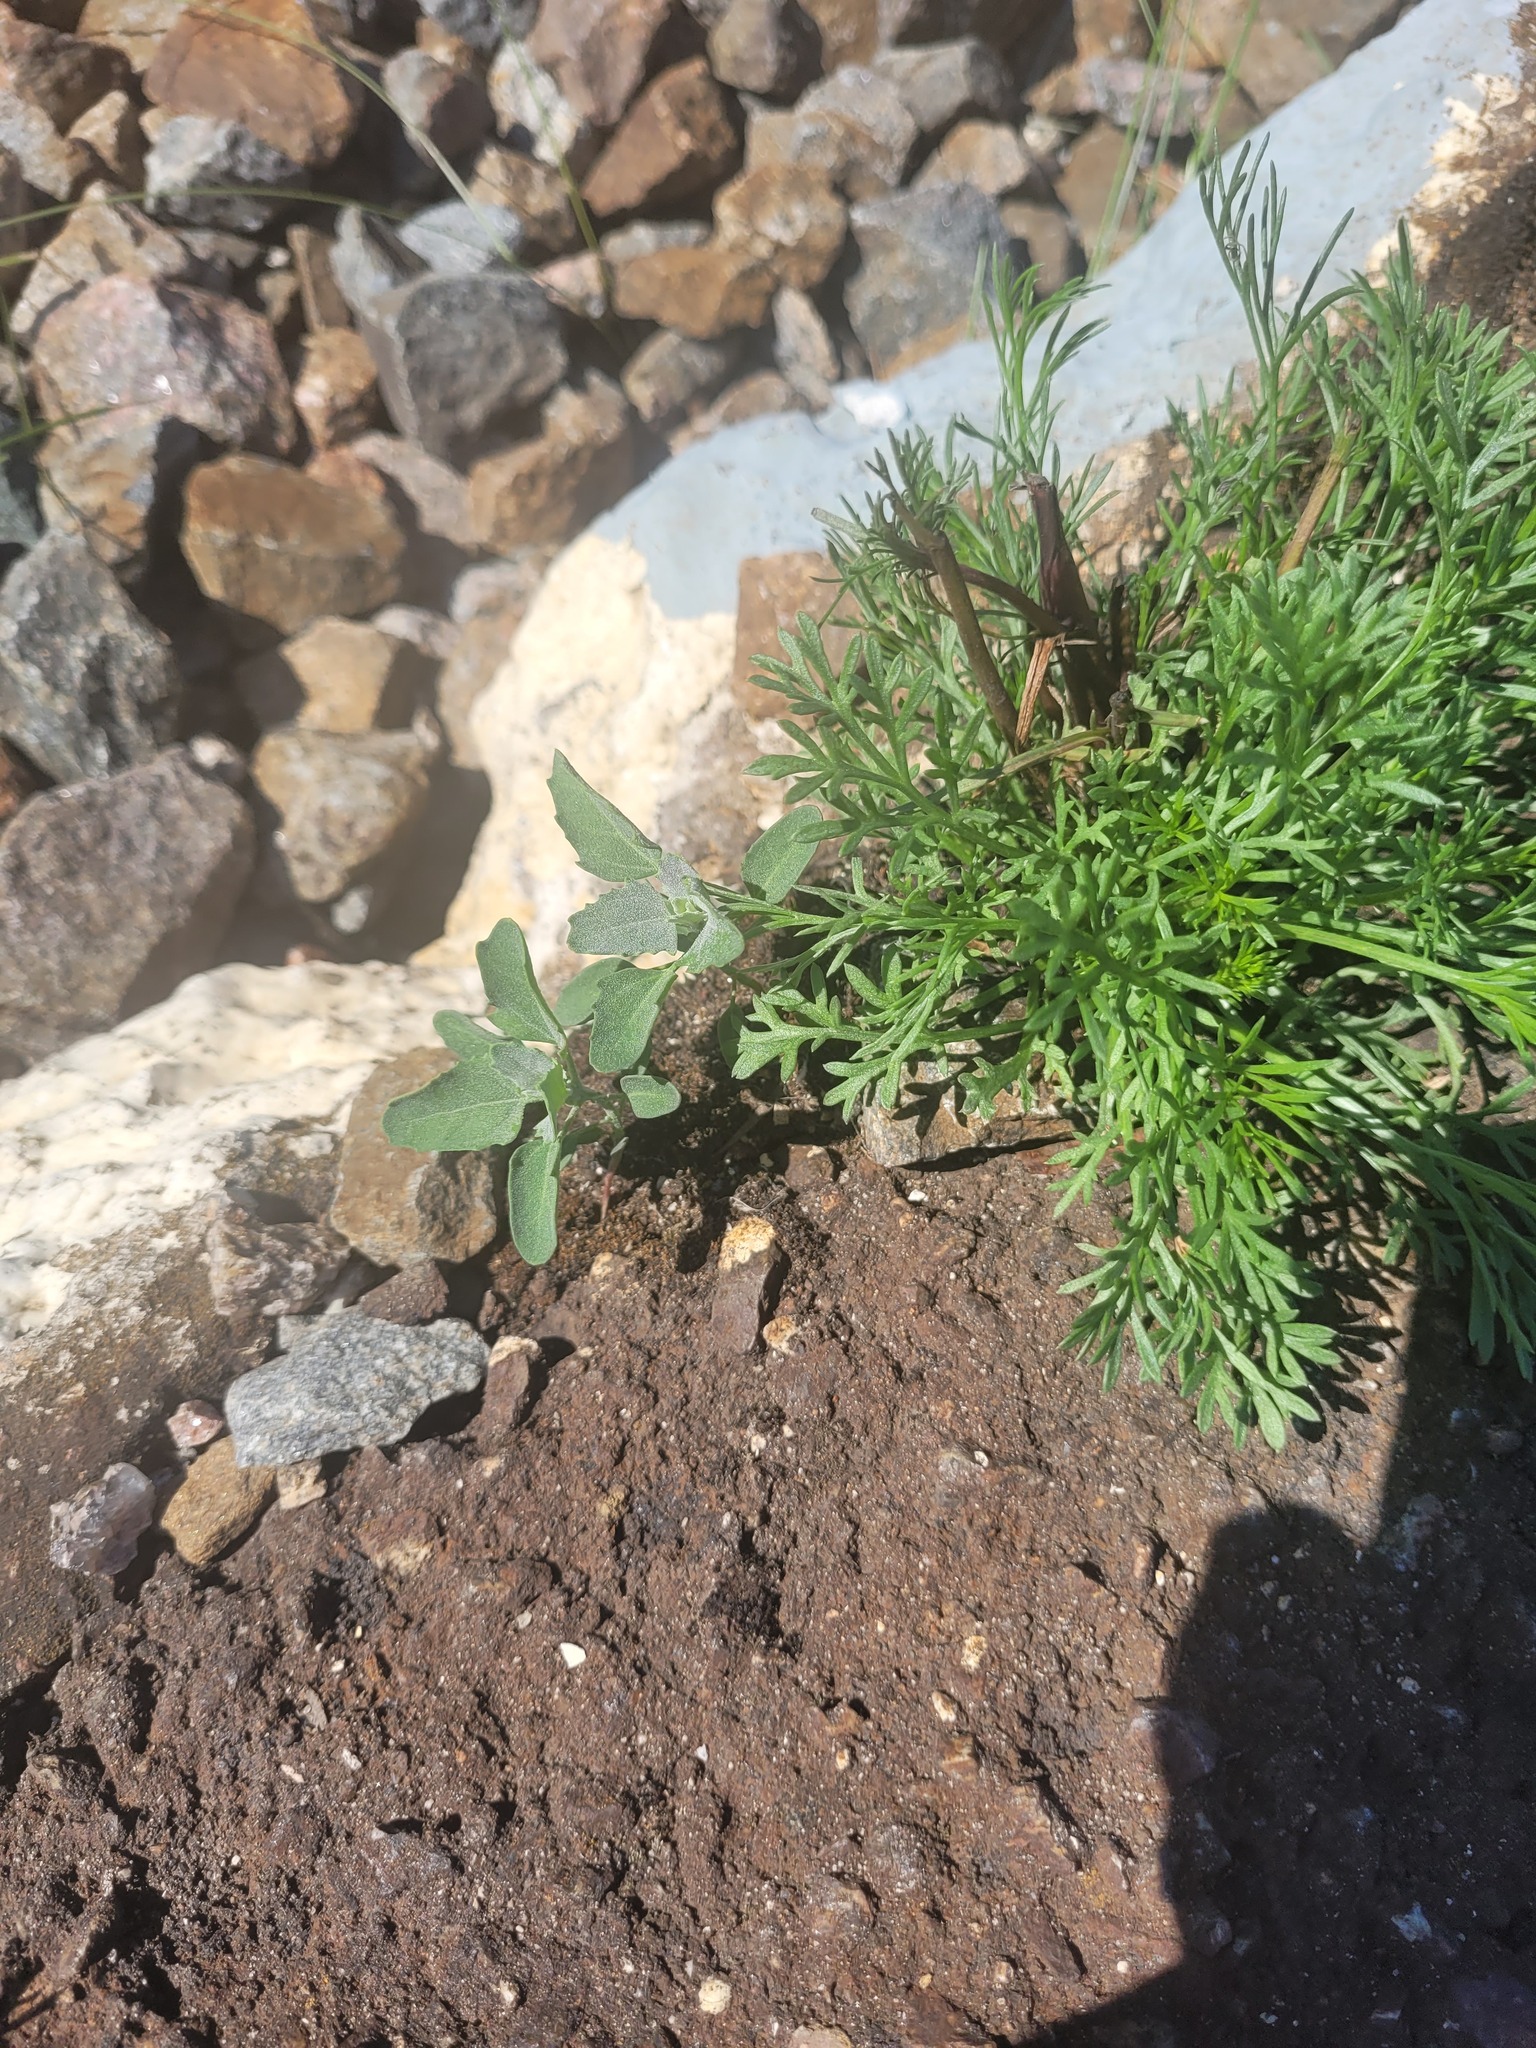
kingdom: Plantae
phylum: Tracheophyta
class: Magnoliopsida
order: Caryophyllales
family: Amaranthaceae
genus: Chenopodium
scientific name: Chenopodium album
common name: Fat-hen
